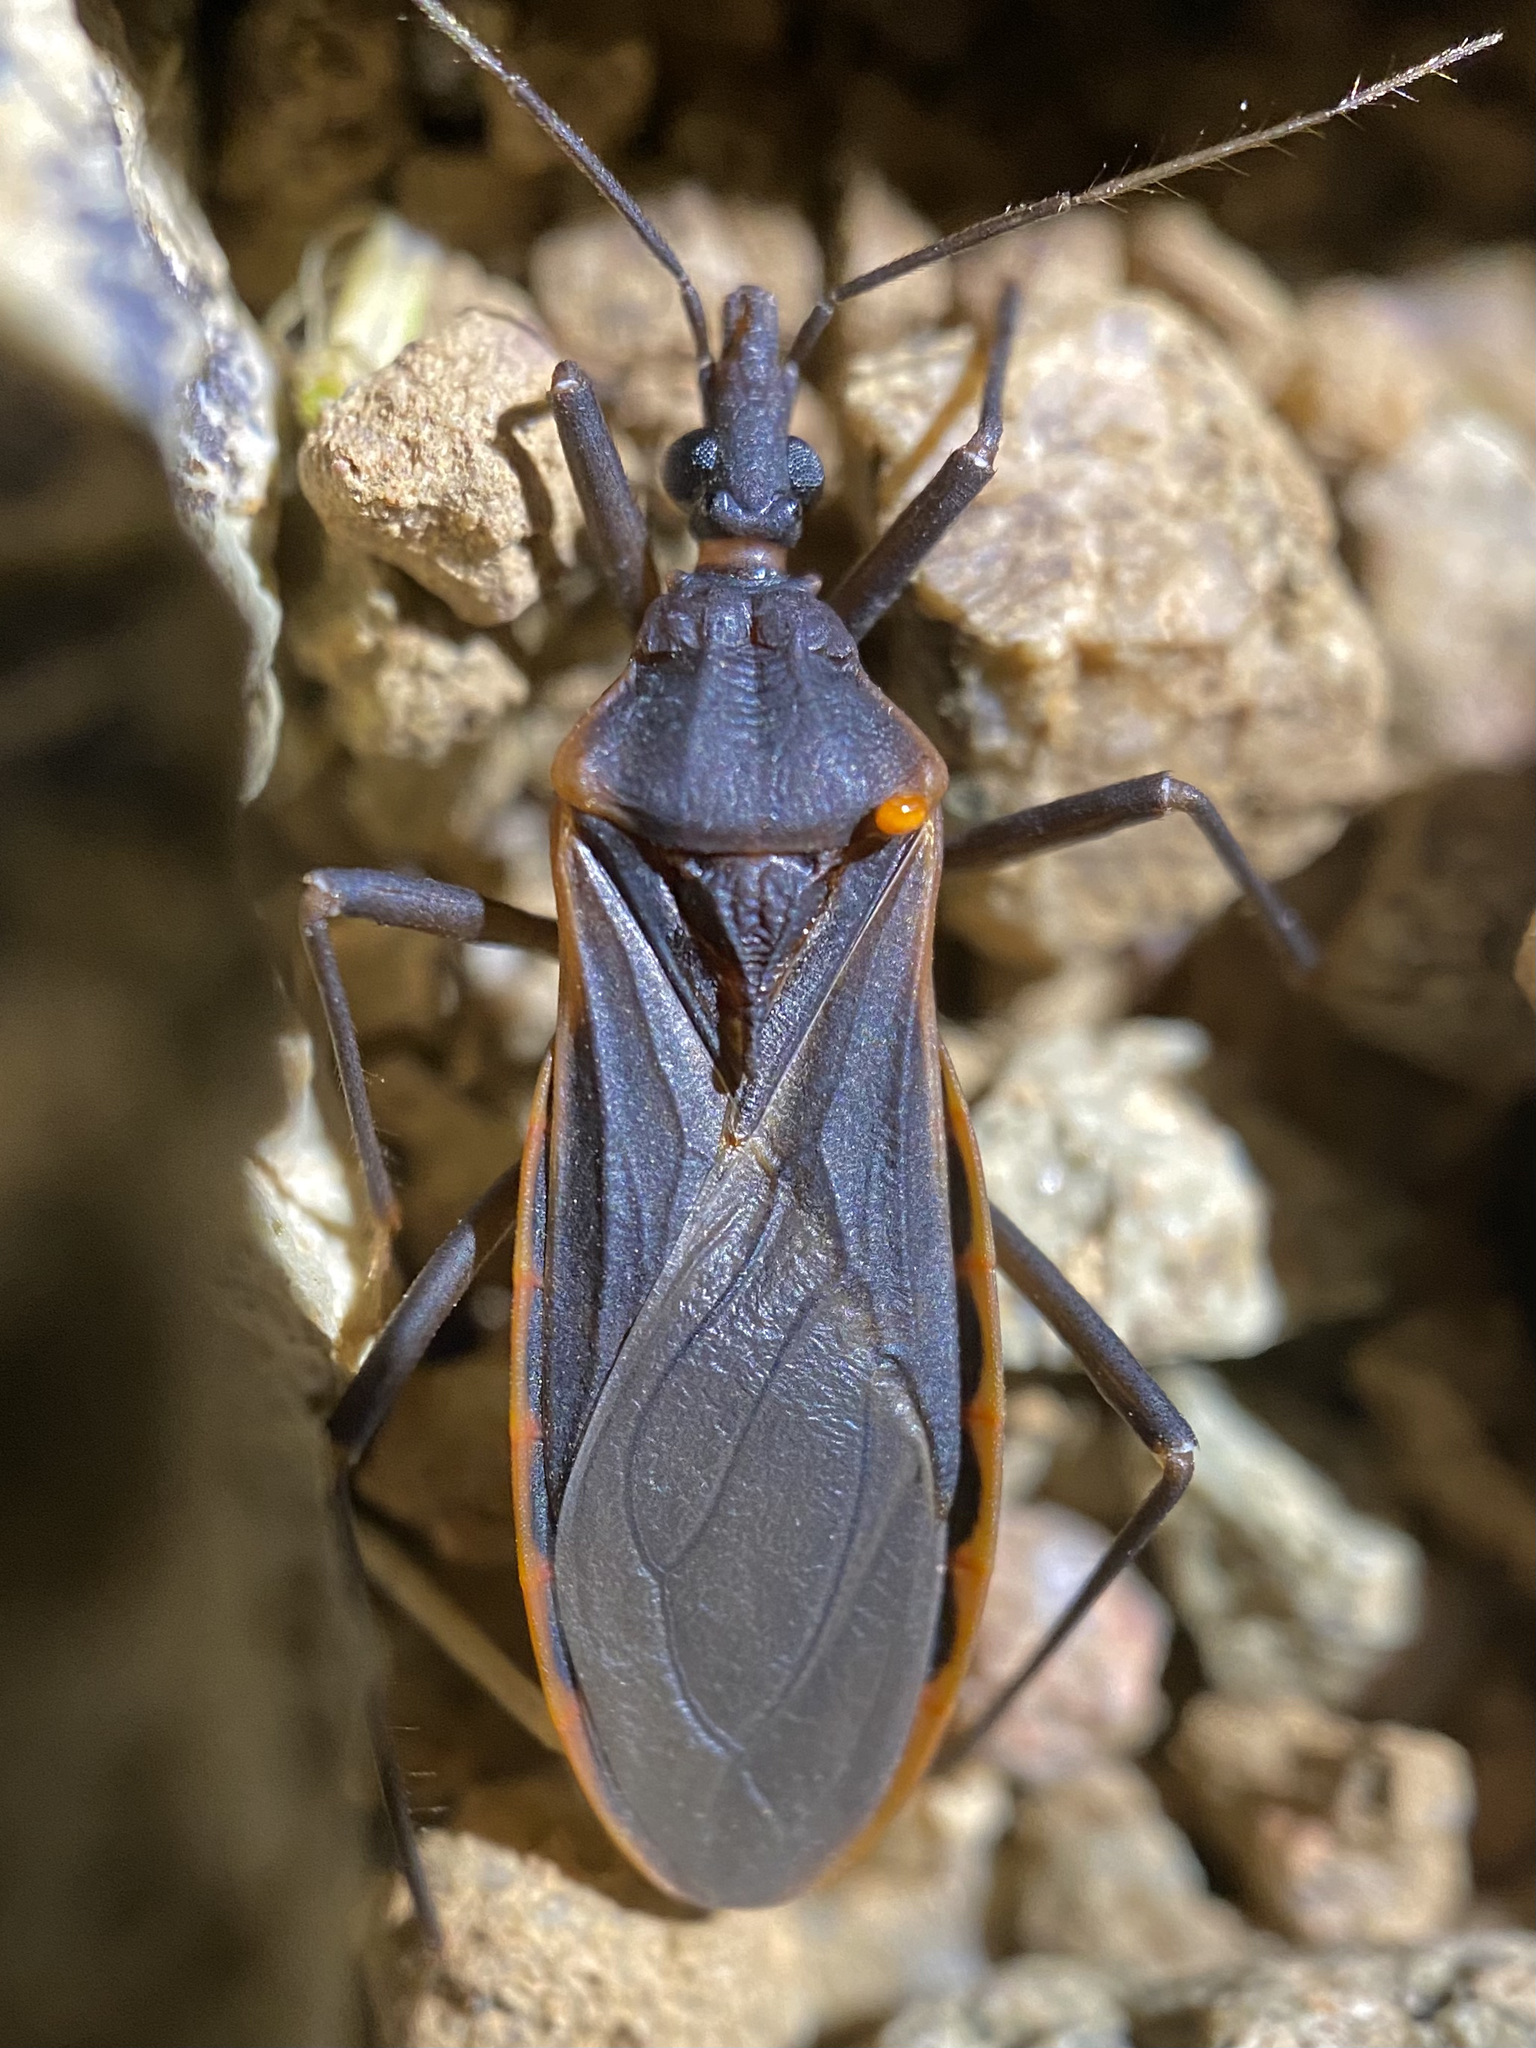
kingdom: Animalia
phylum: Arthropoda
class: Insecta
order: Hemiptera
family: Reduviidae
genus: Triatoma
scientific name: Triatoma rubida
